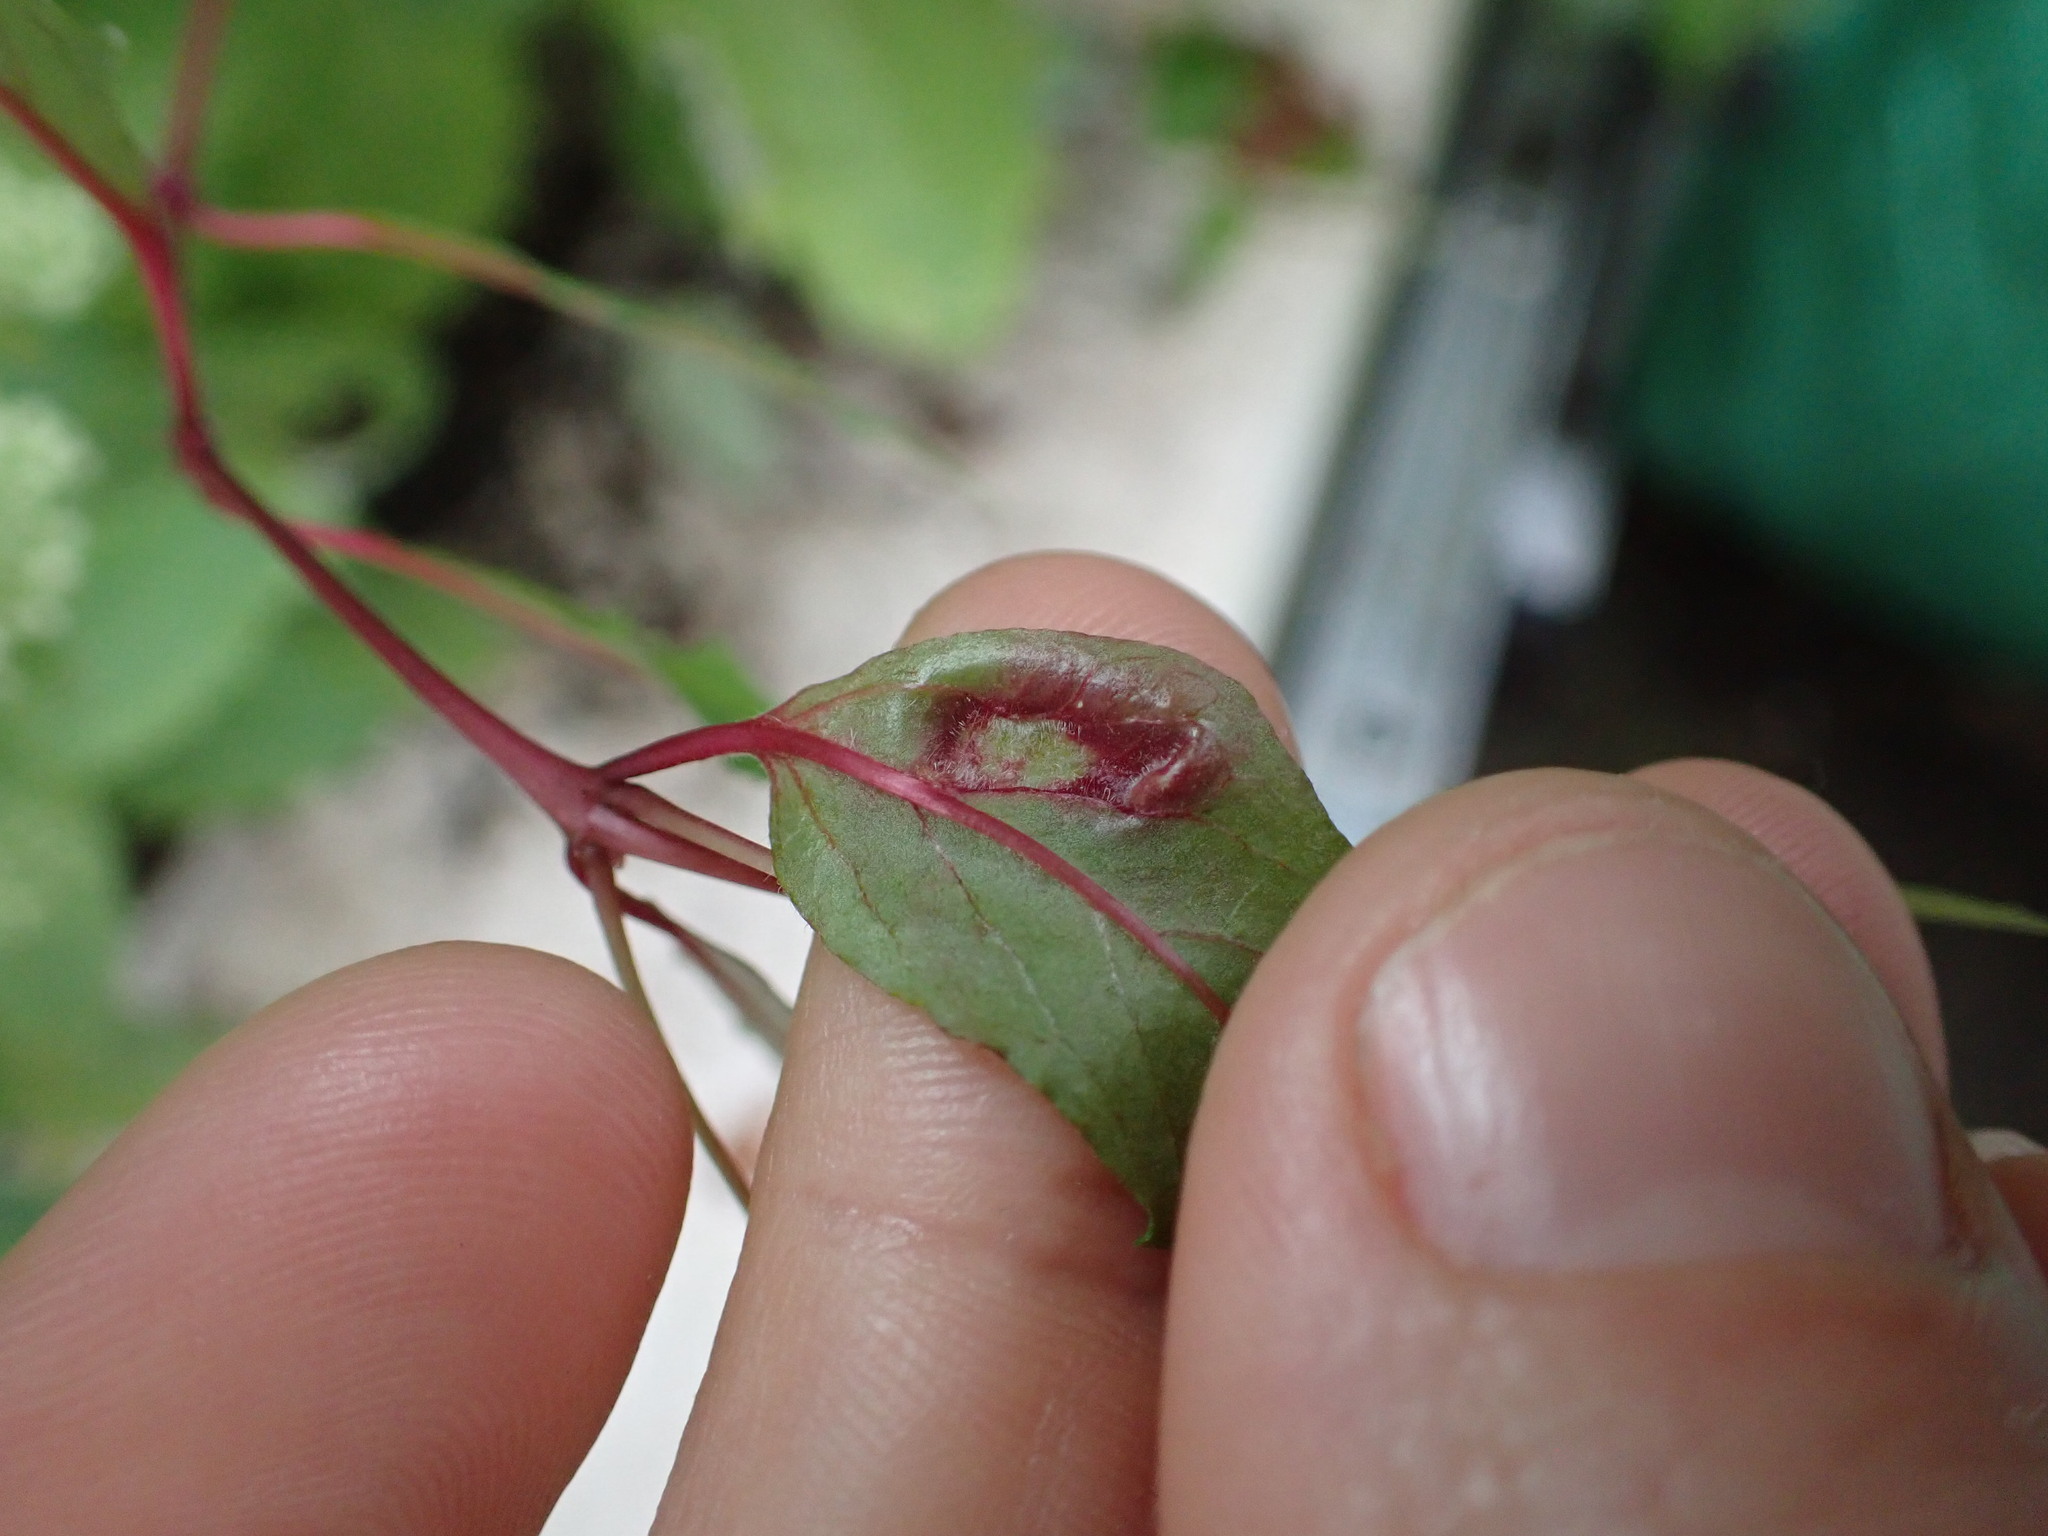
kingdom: Animalia
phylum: Arthropoda
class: Arachnida
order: Trombidiformes
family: Eriophyidae
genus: Aculops
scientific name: Aculops fuchsiae
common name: Fuchsia gall mite
